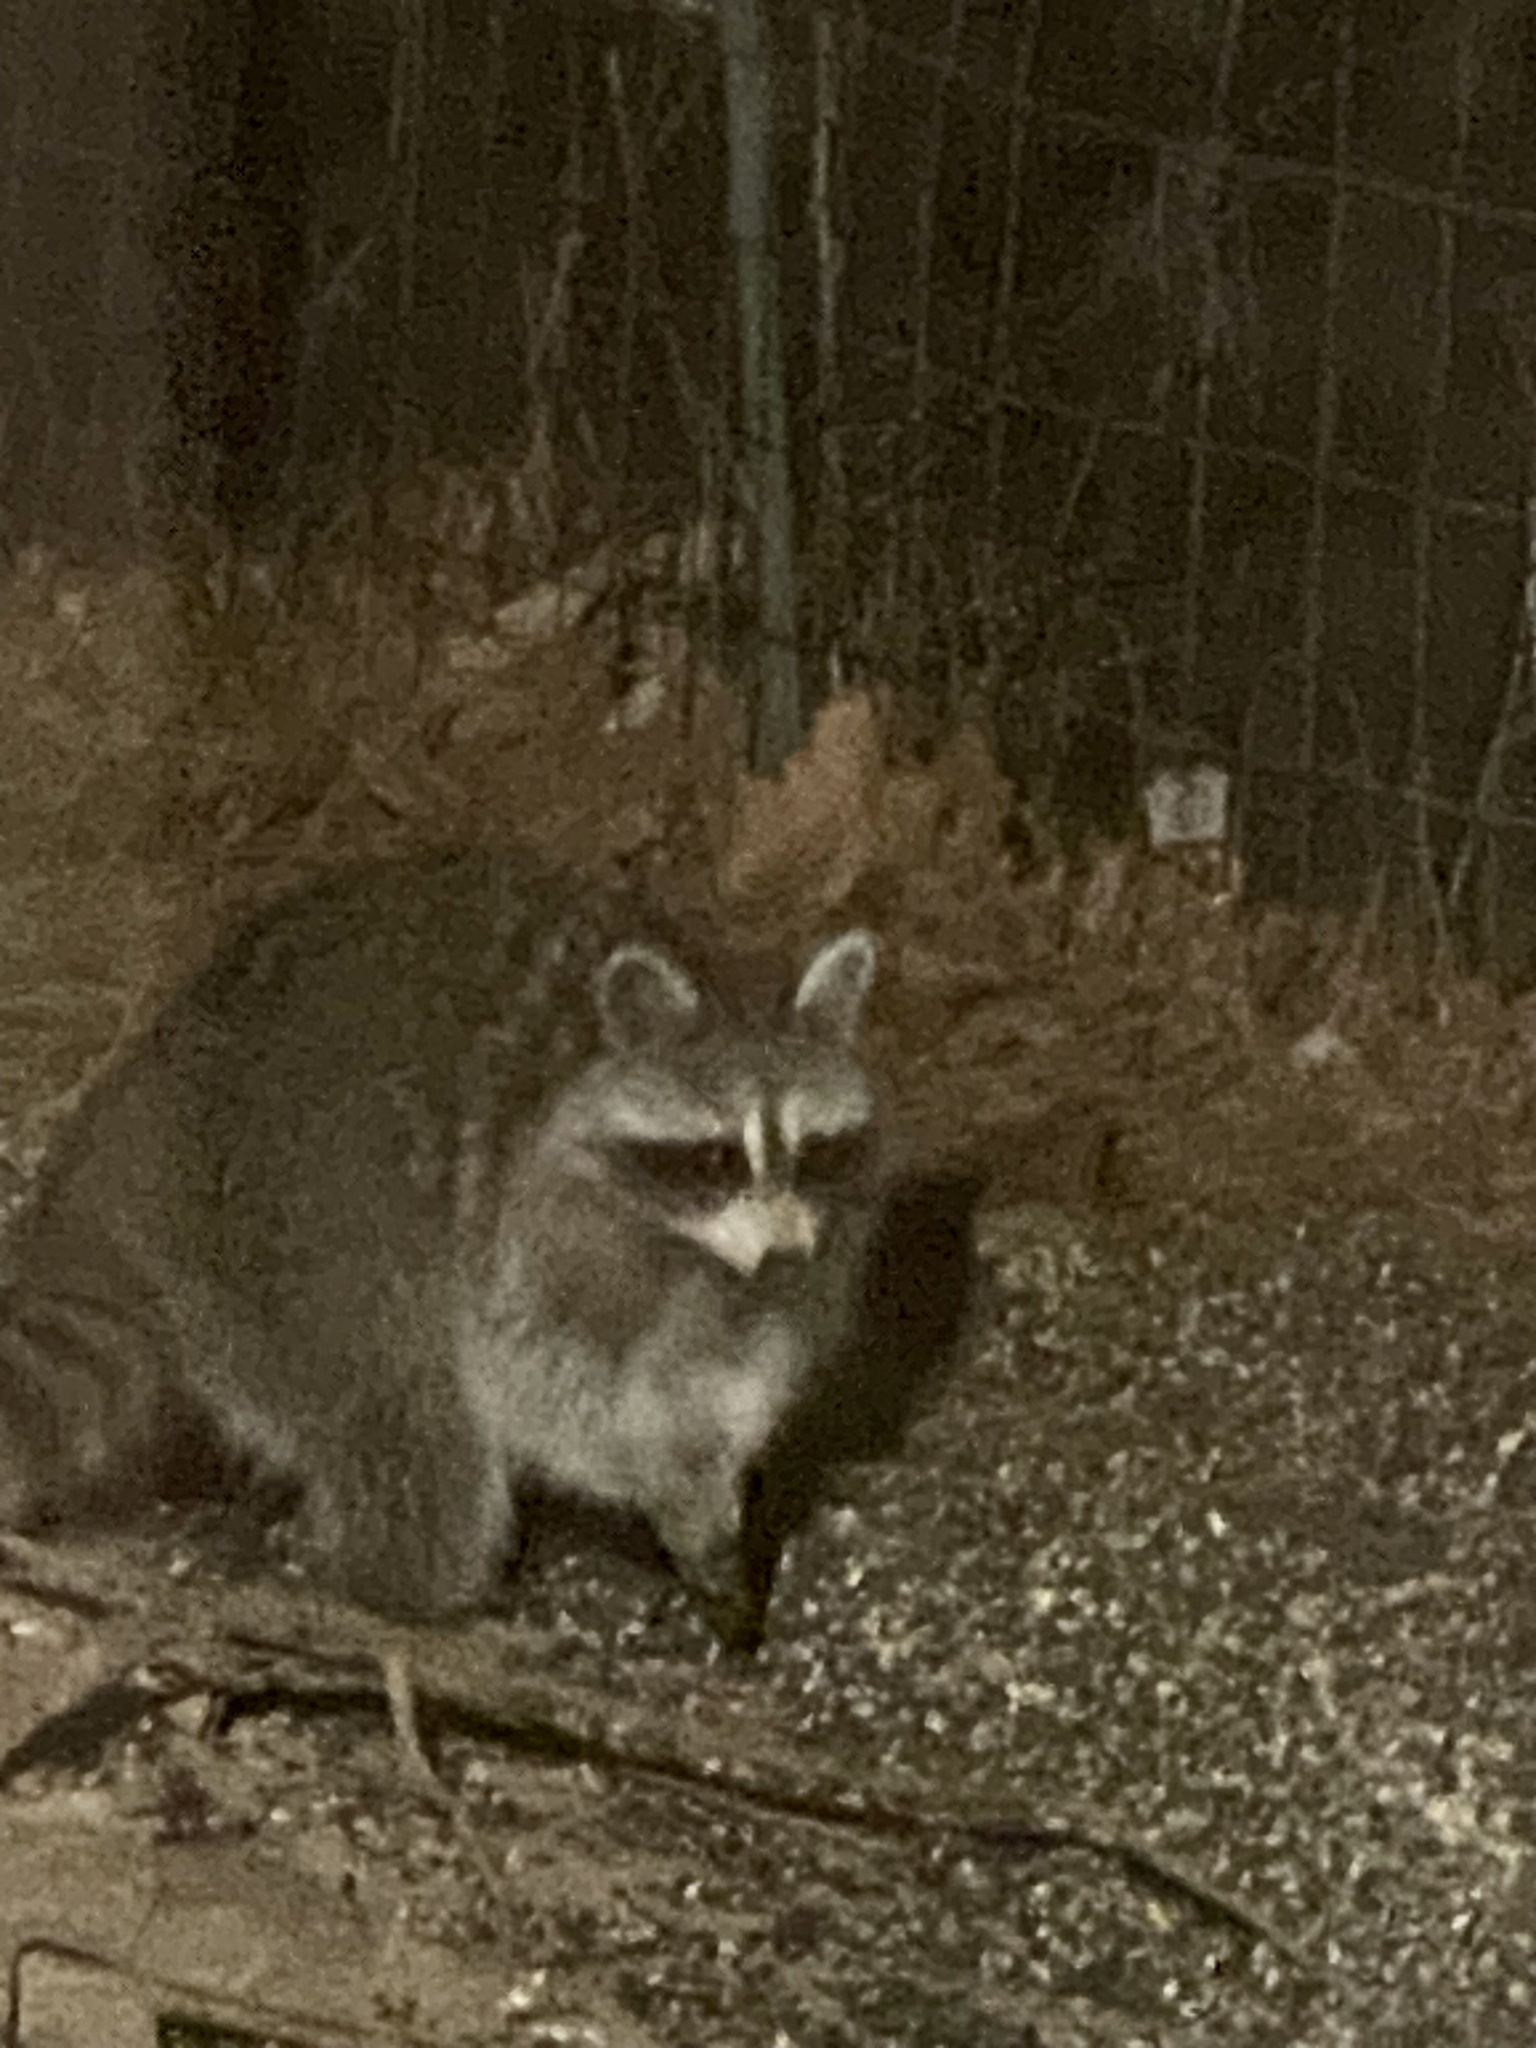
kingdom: Animalia
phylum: Chordata
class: Mammalia
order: Carnivora
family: Procyonidae
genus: Procyon
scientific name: Procyon lotor
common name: Raccoon
